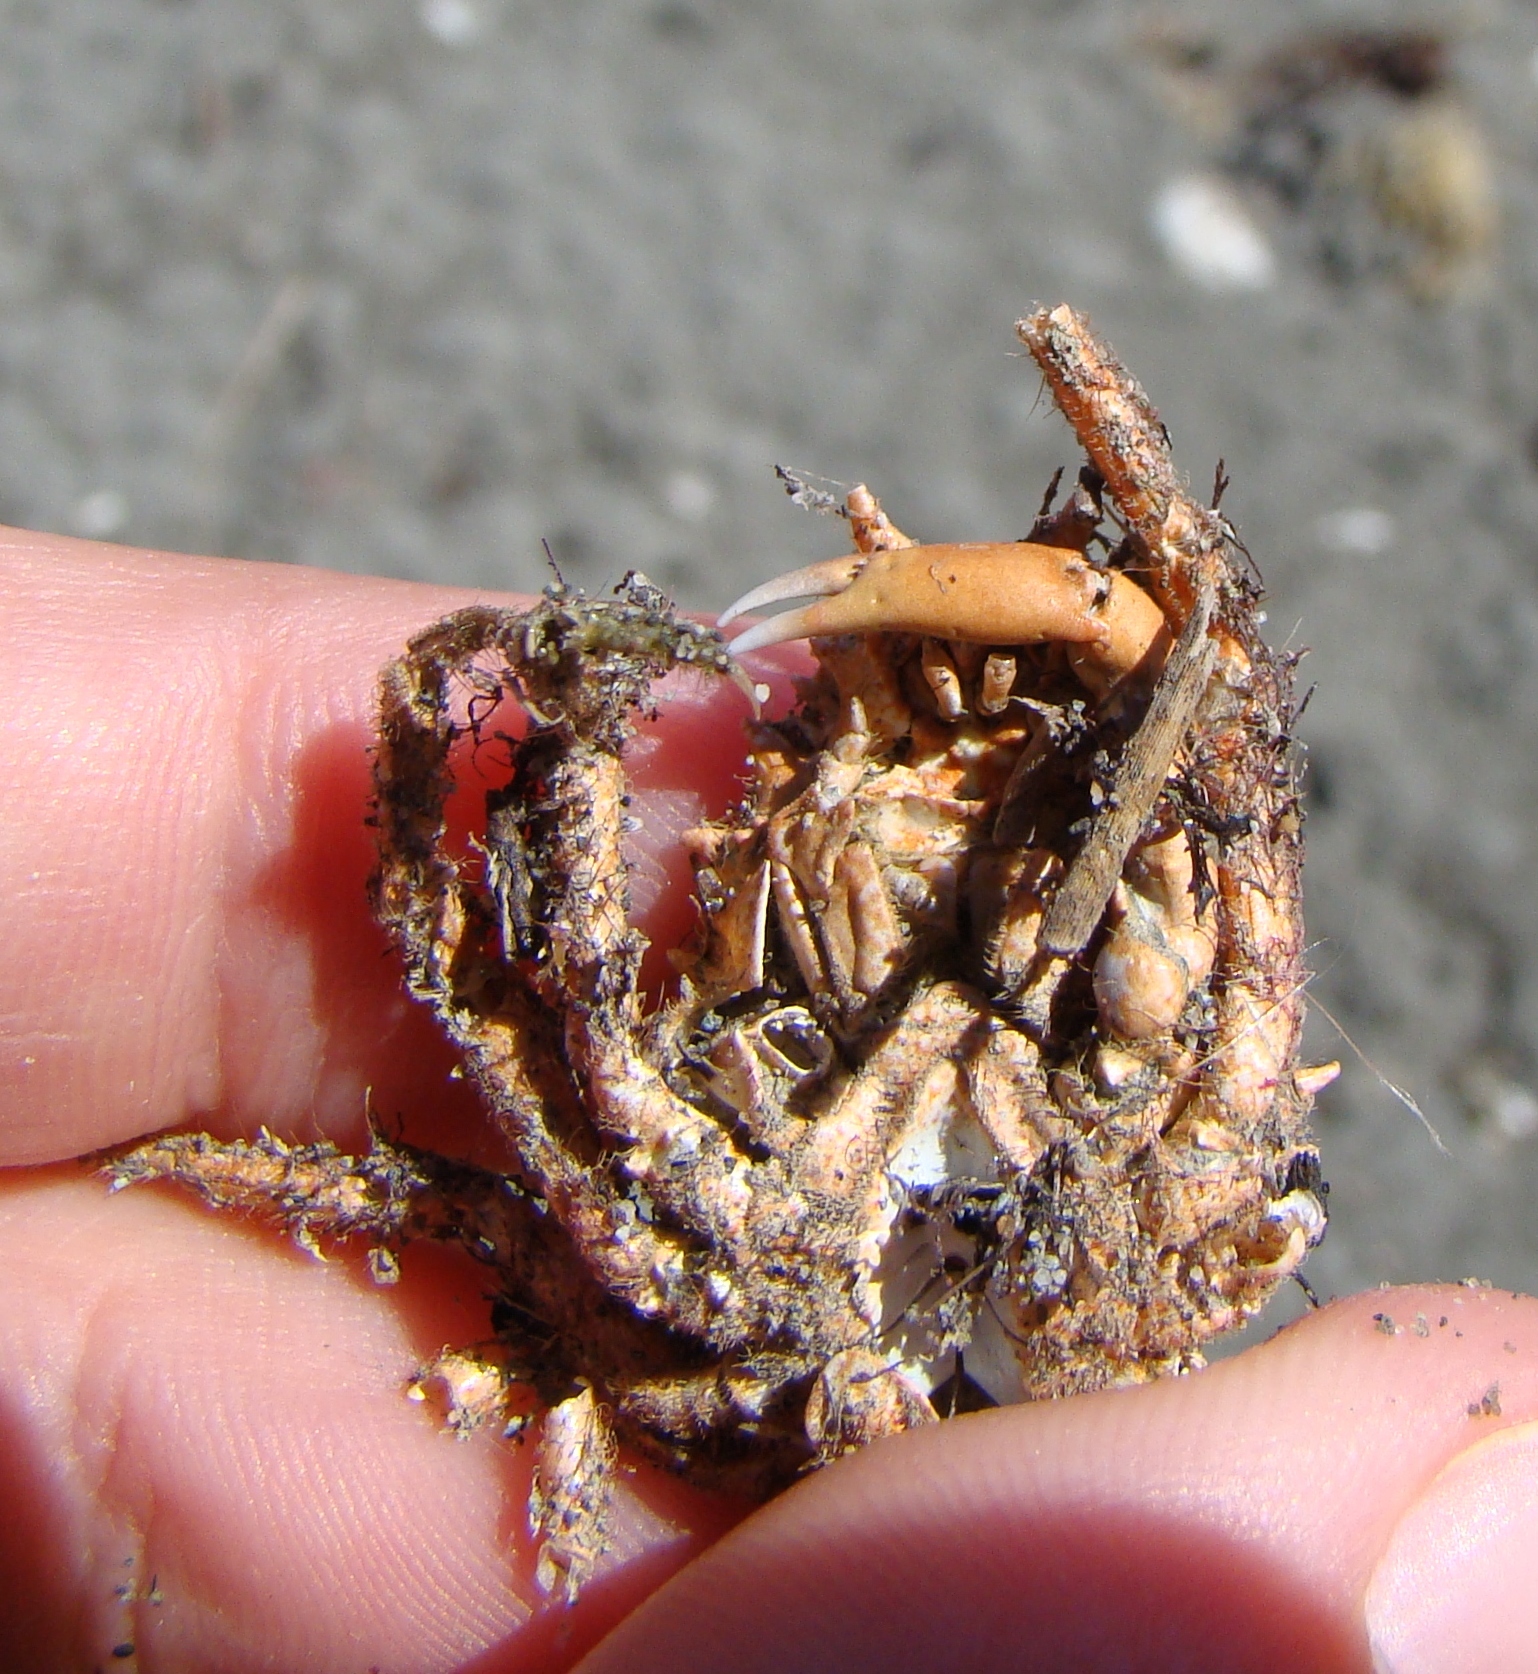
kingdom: Animalia
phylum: Arthropoda
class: Malacostraca
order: Decapoda
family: Majidae
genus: Notomithrax
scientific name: Notomithrax ursus
